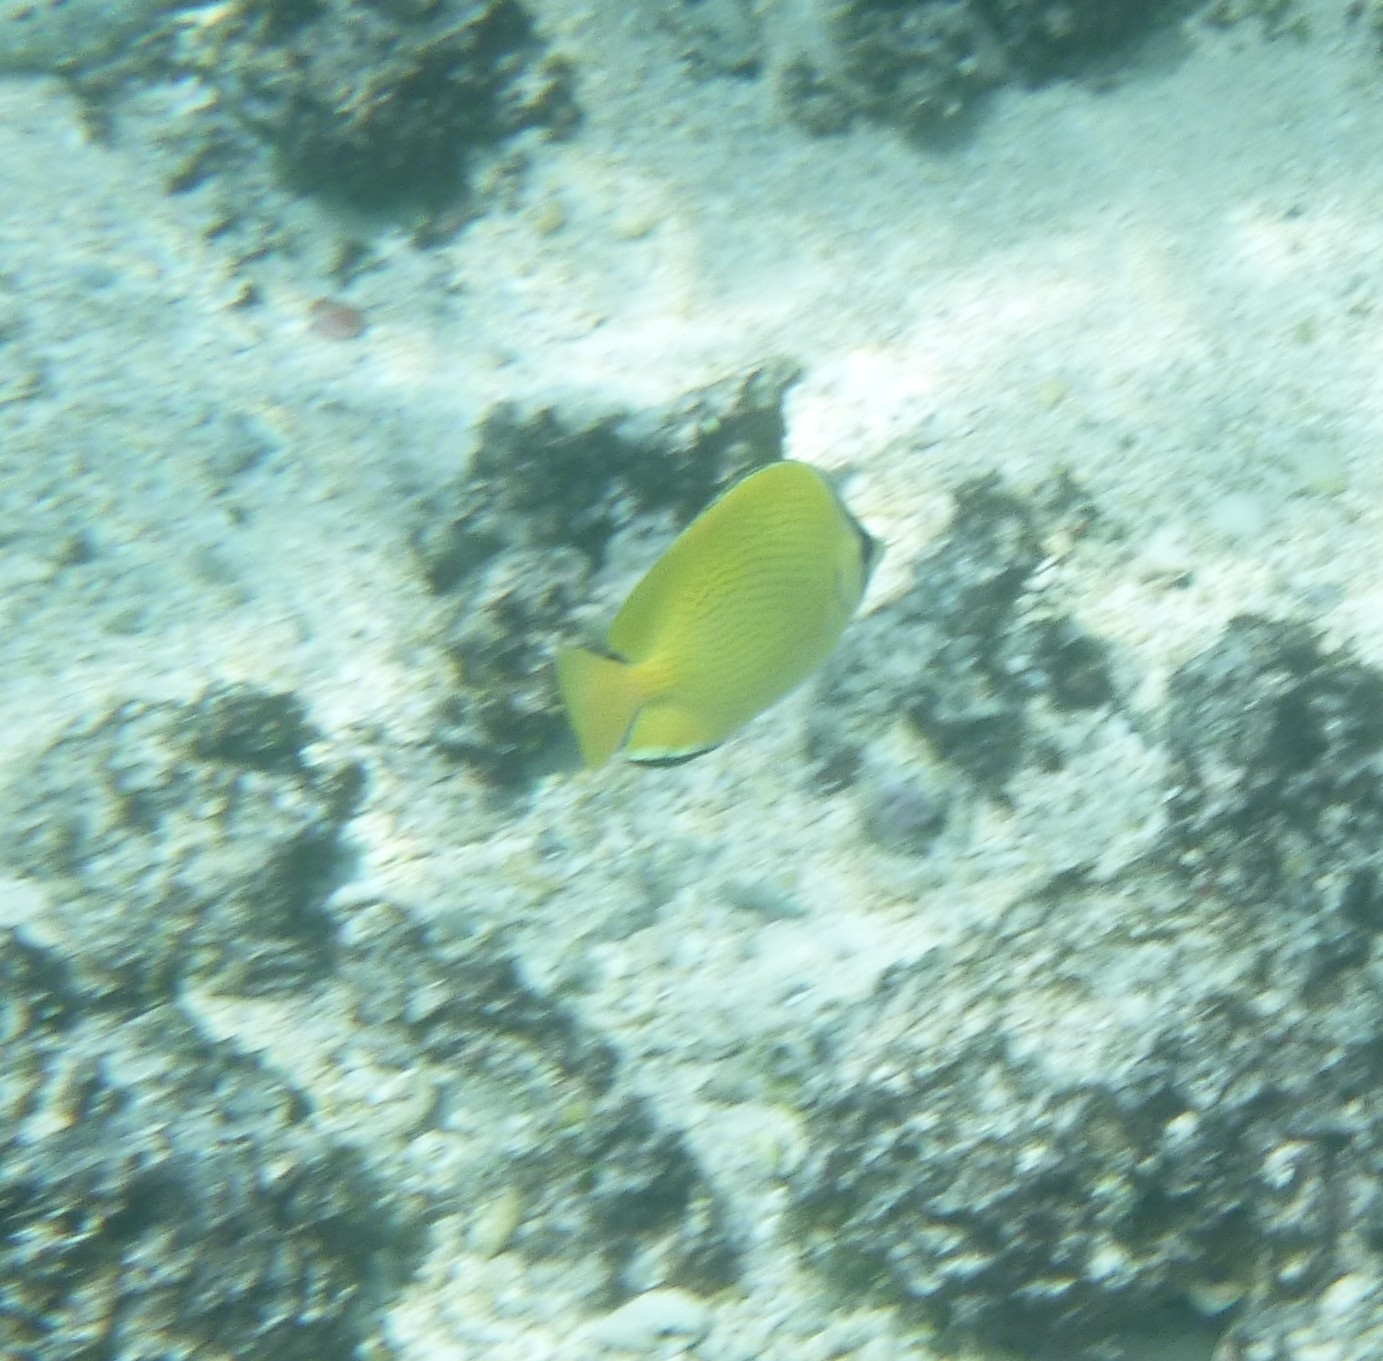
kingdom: Animalia
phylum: Chordata
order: Perciformes
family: Chaetodontidae
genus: Chaetodon
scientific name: Chaetodon citrinellus
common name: Speckled butterflyfish
